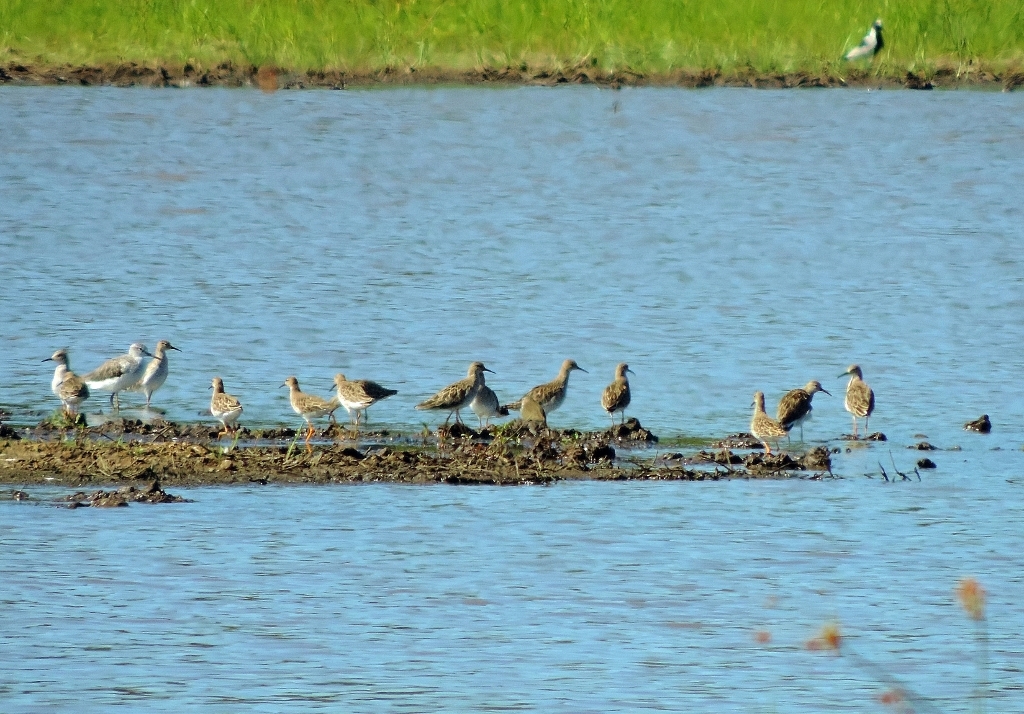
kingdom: Animalia
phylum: Chordata
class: Aves
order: Charadriiformes
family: Scolopacidae
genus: Calidris
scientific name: Calidris pugnax
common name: Ruff
